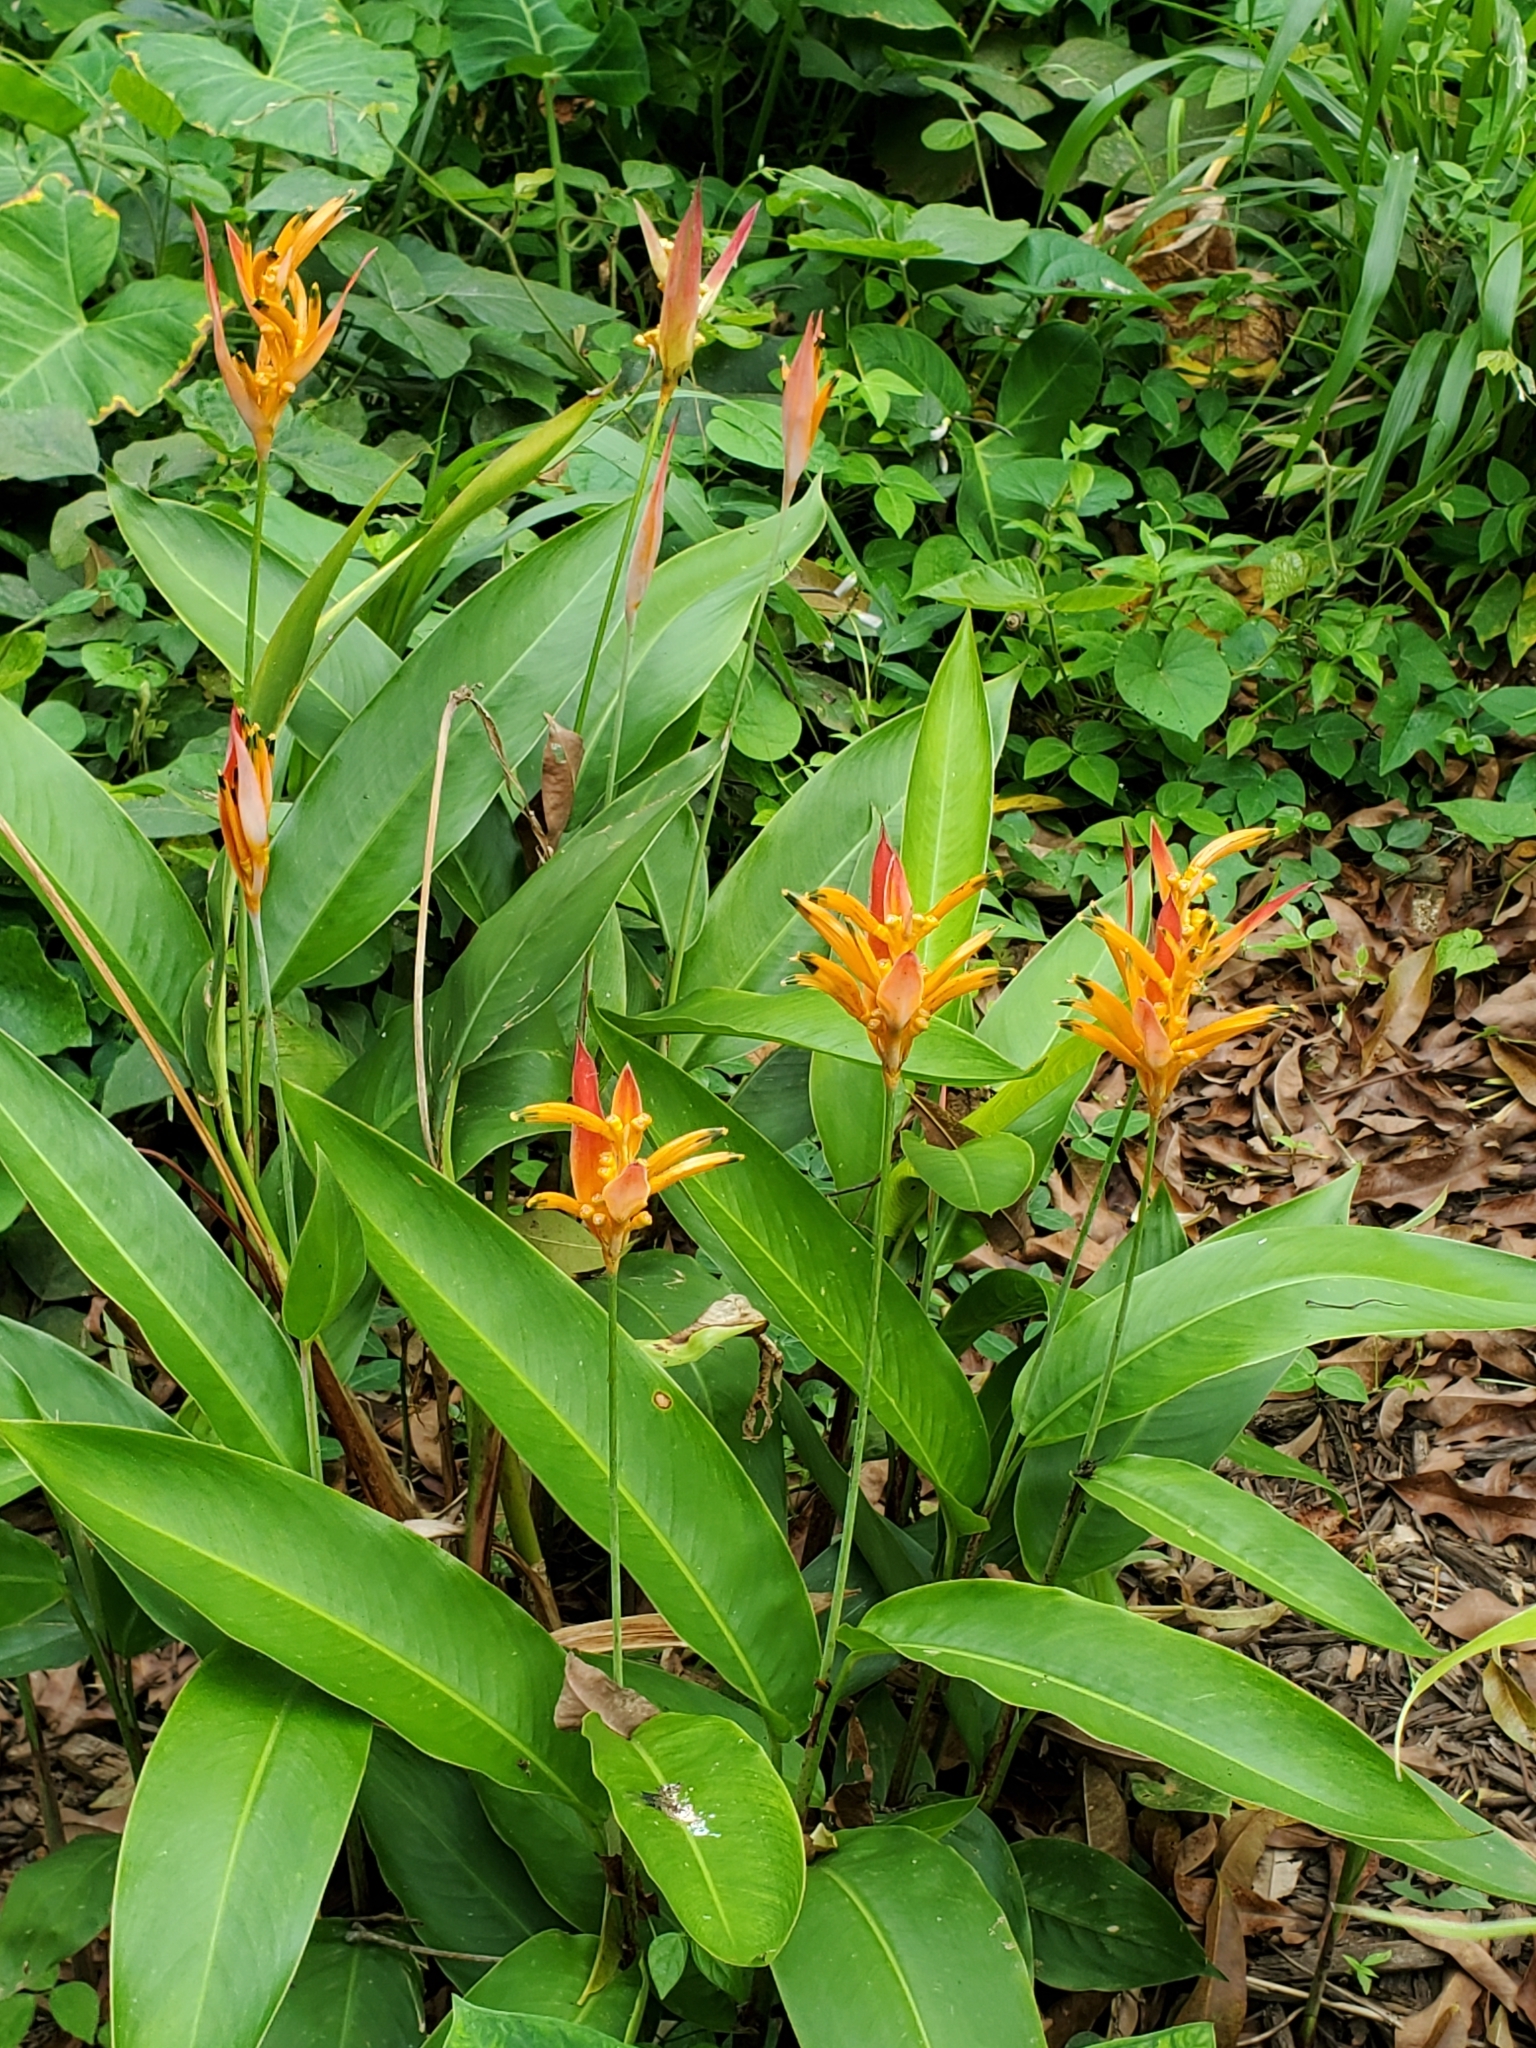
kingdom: Plantae
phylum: Tracheophyta
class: Liliopsida
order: Zingiberales
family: Heliconiaceae
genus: Heliconia
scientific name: Heliconia psittacorum
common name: Parrot's-flower
